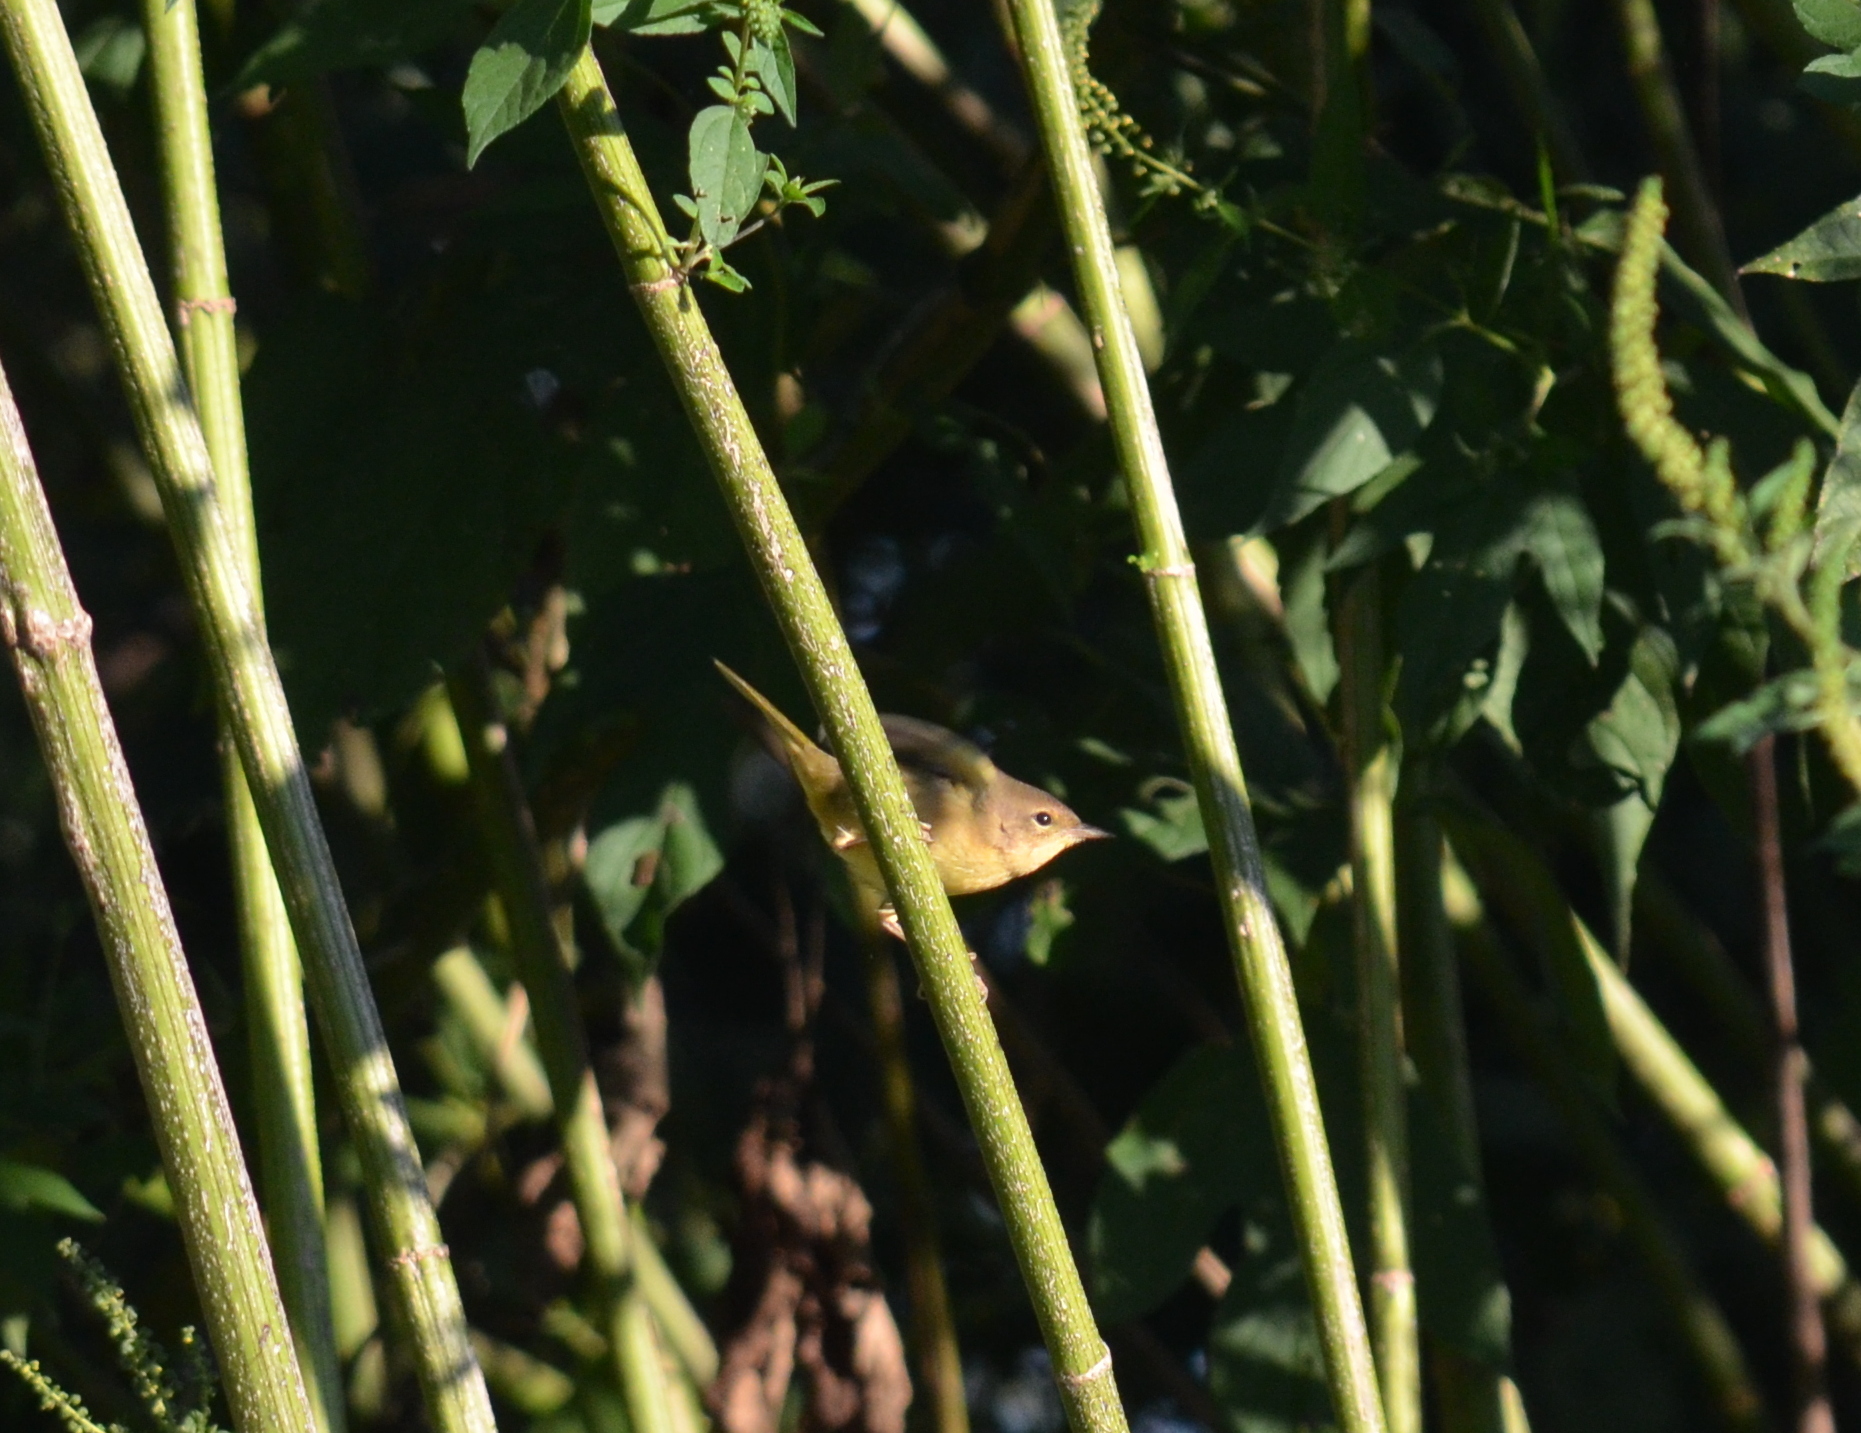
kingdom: Animalia
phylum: Chordata
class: Aves
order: Passeriformes
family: Parulidae
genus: Geothlypis
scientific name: Geothlypis trichas
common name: Common yellowthroat
